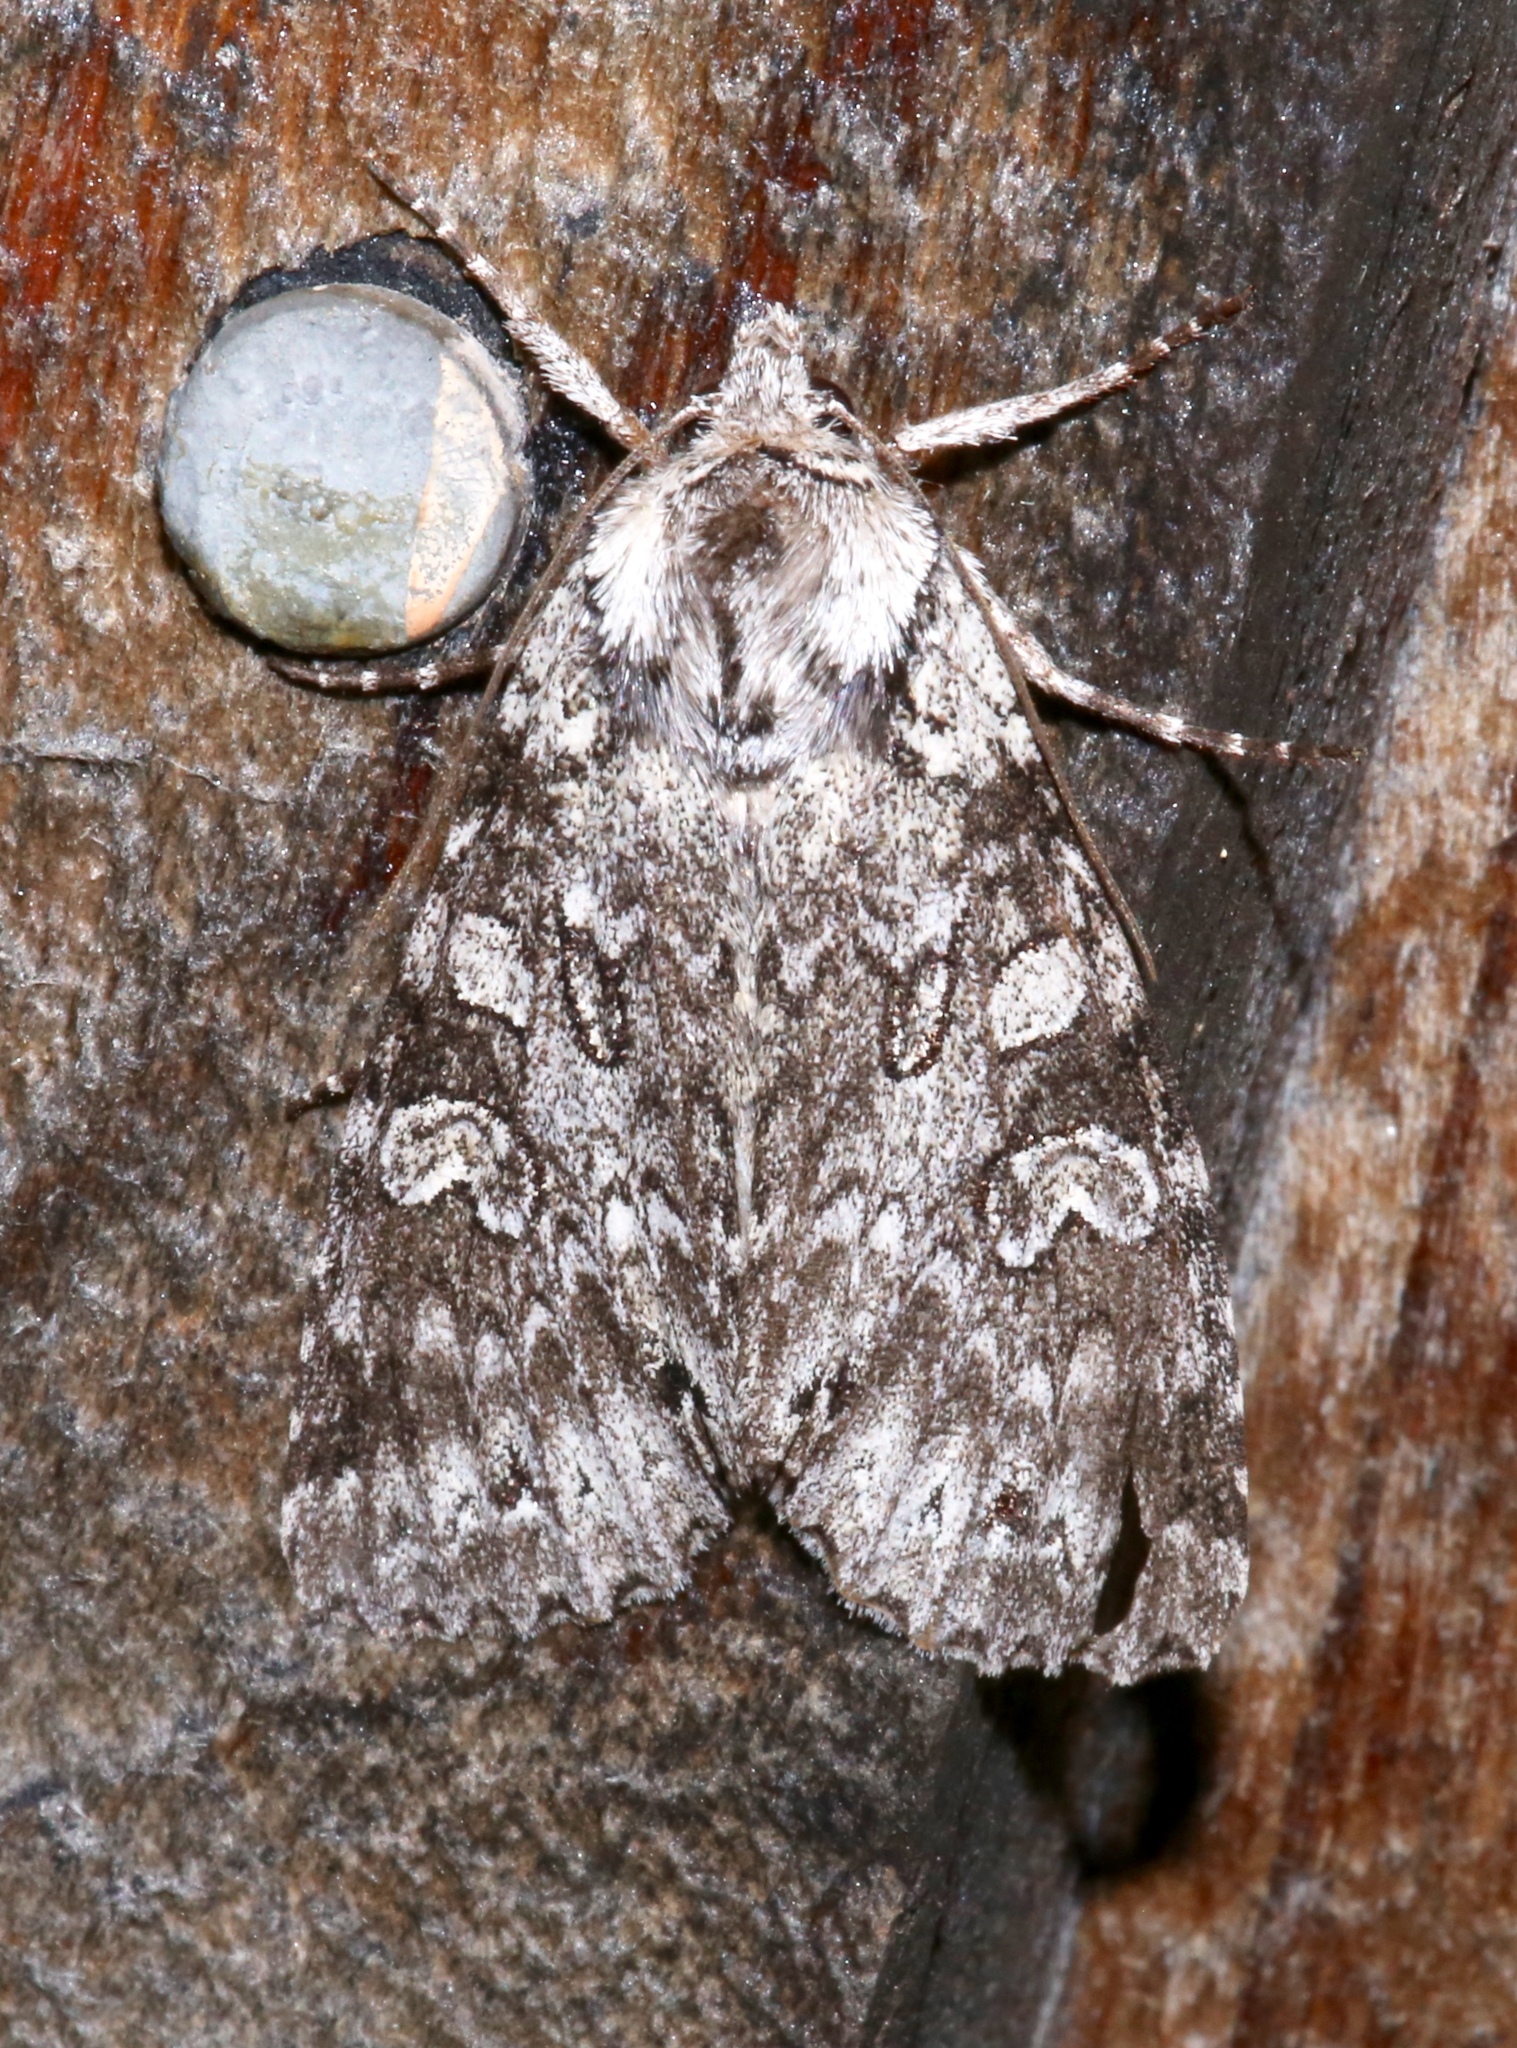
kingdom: Animalia
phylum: Arthropoda
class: Insecta
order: Lepidoptera
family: Noctuidae
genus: Polia
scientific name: Polia nimbosa
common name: Stormy arches
